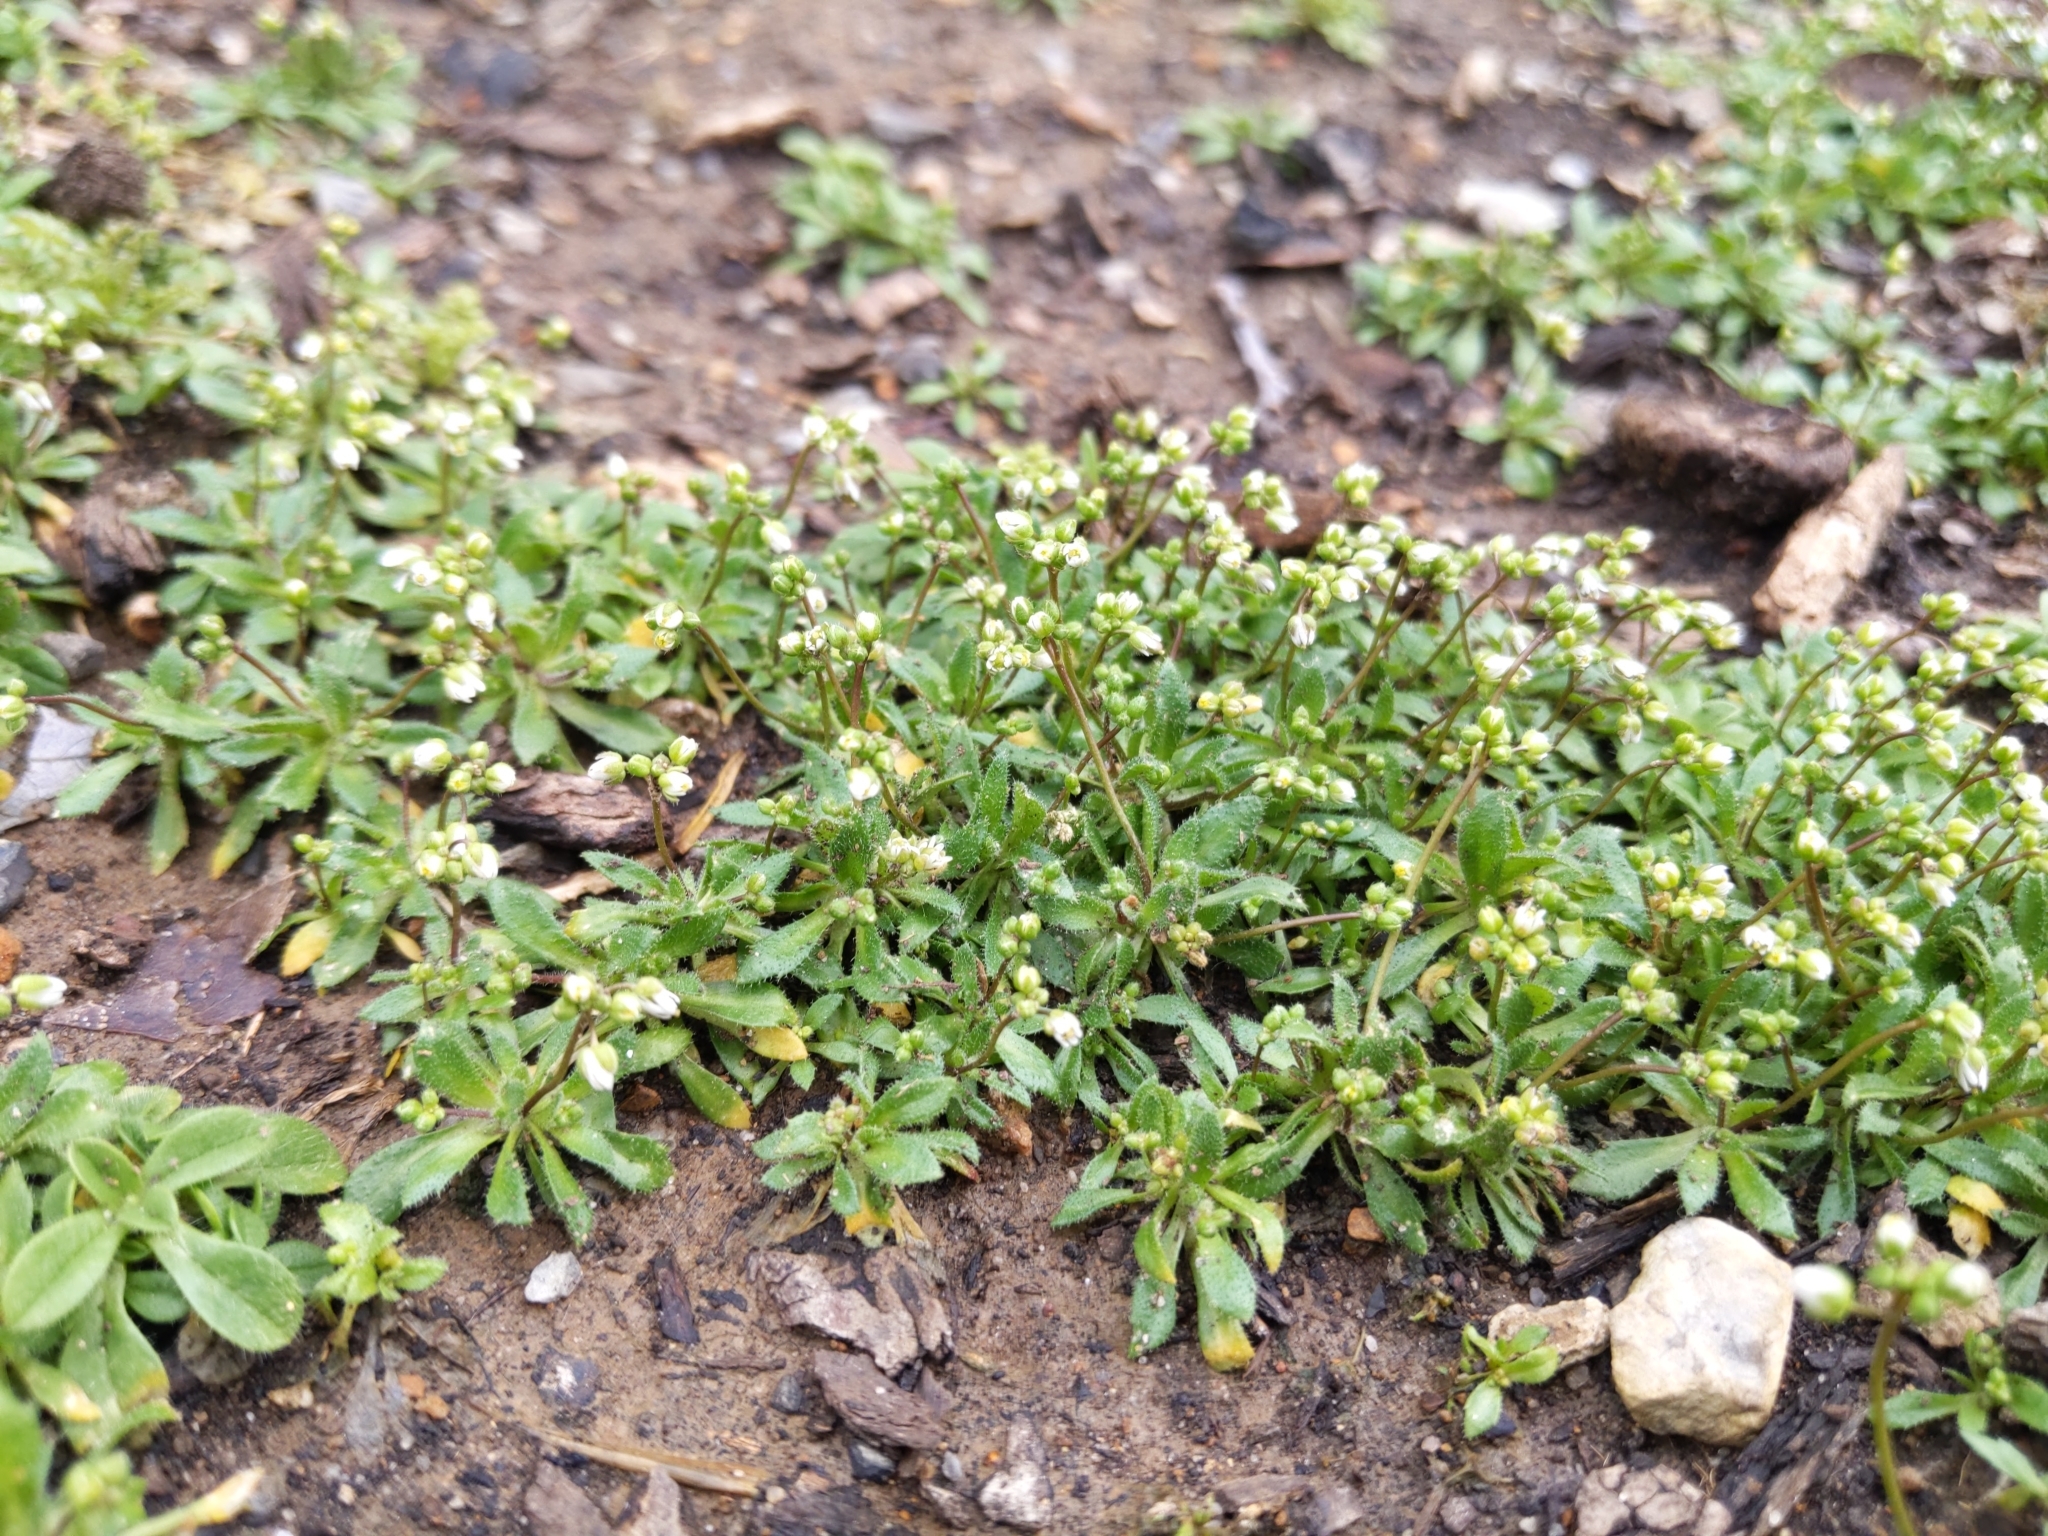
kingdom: Plantae
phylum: Tracheophyta
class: Magnoliopsida
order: Brassicales
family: Brassicaceae
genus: Draba
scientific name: Draba verna
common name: Spring draba
